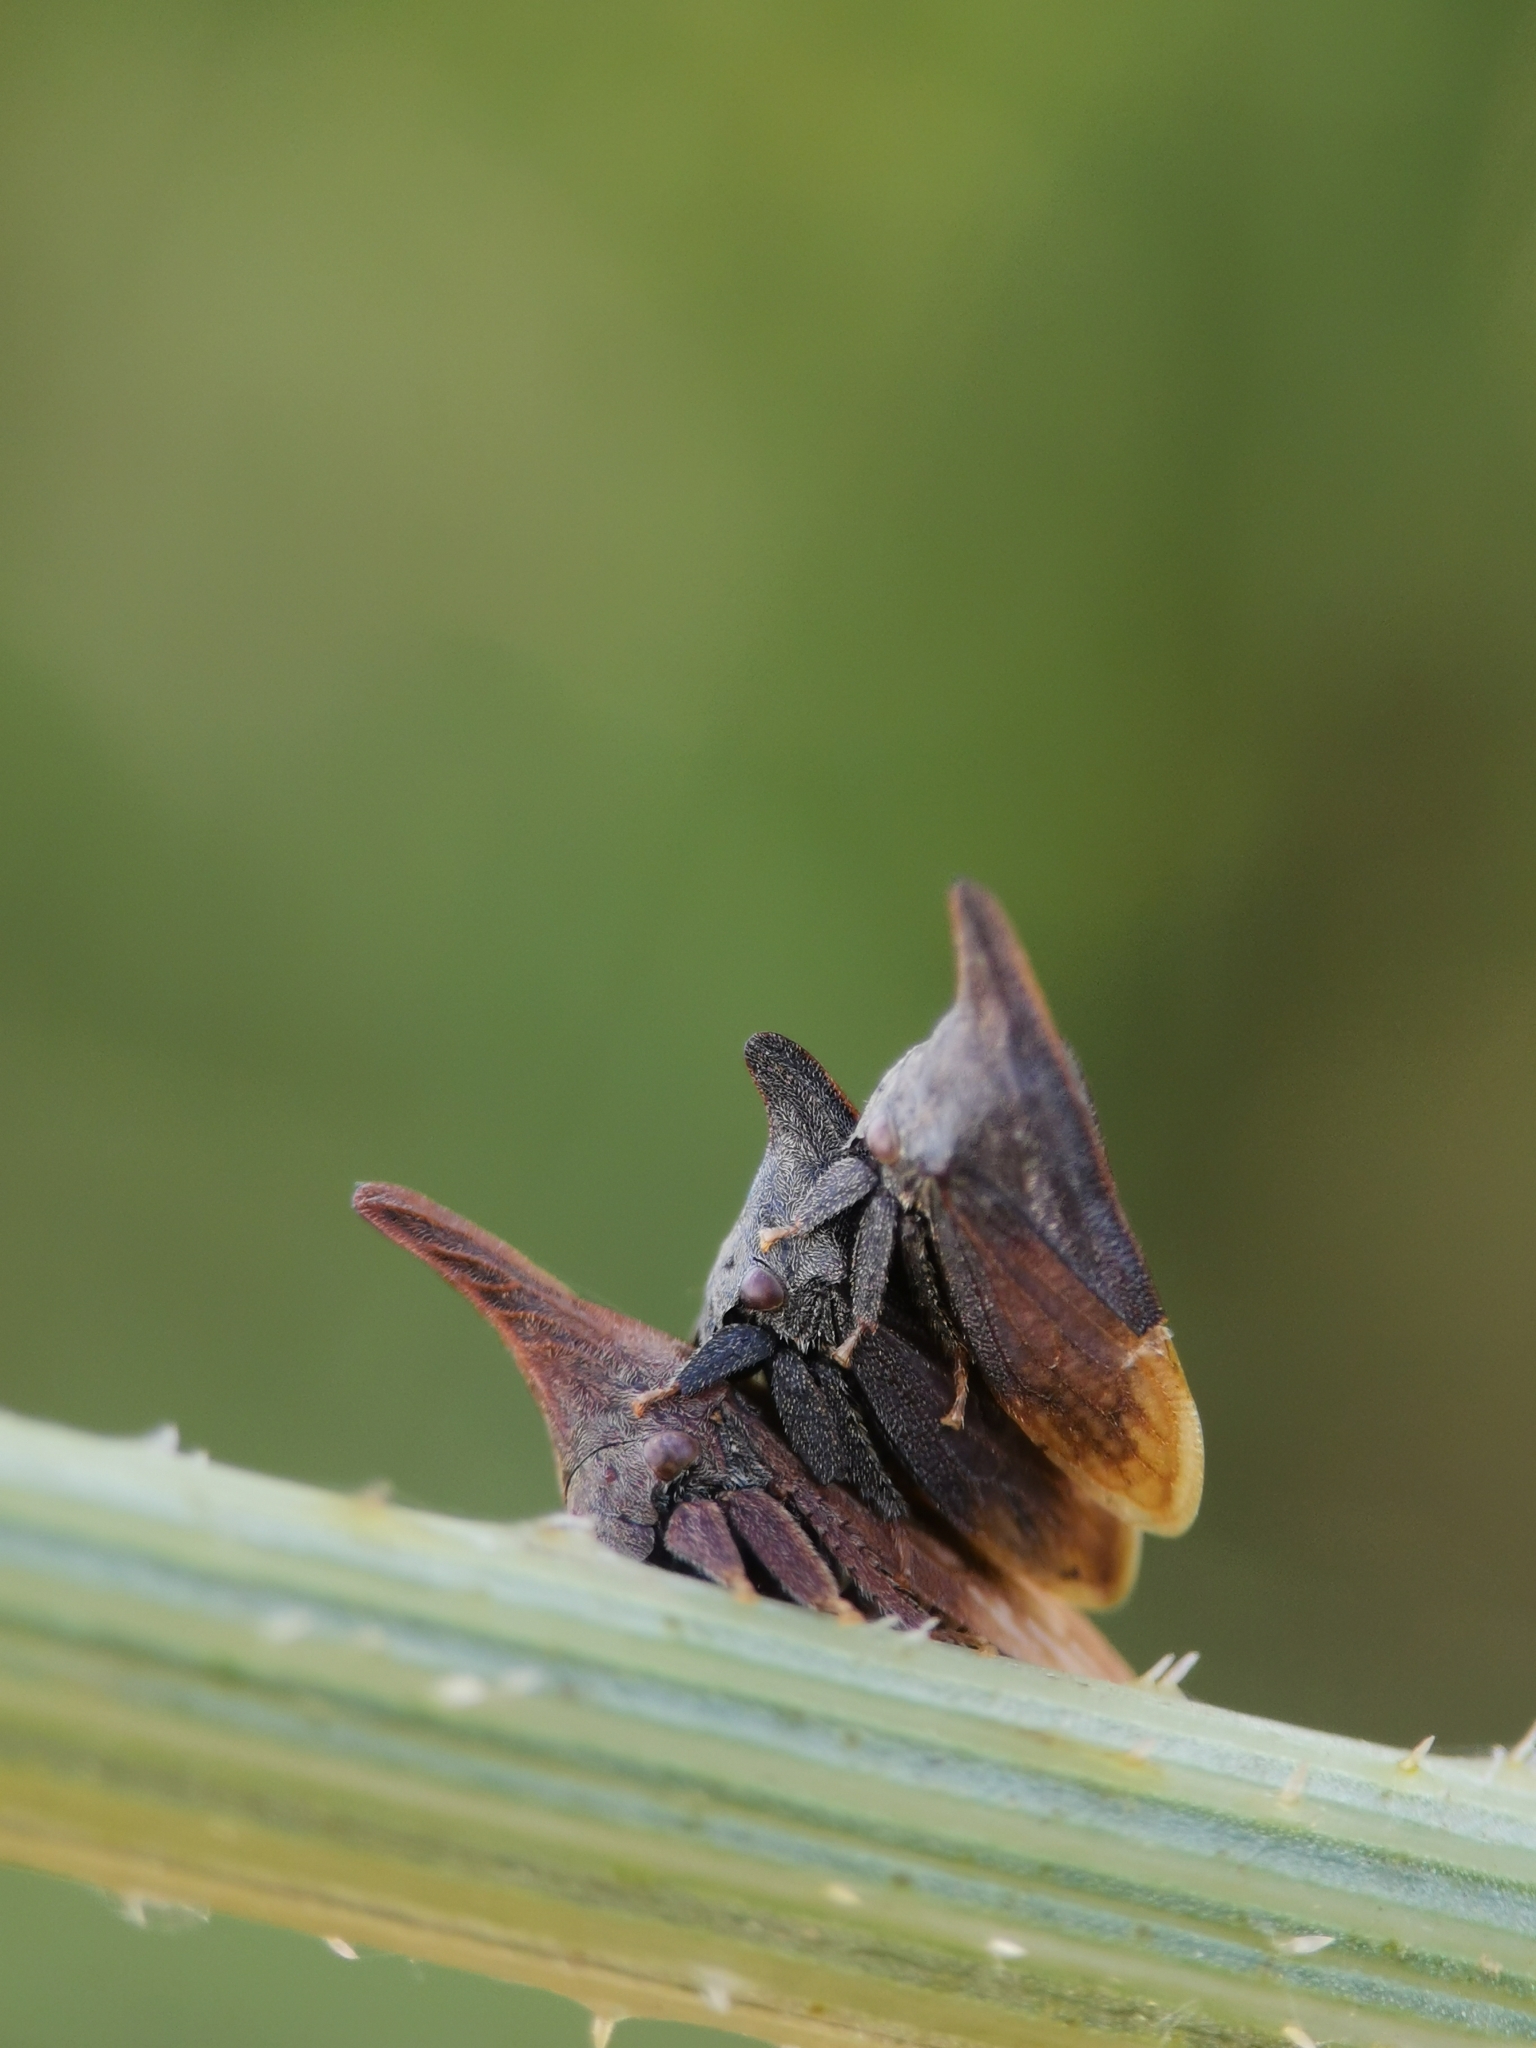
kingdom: Animalia
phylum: Arthropoda
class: Insecta
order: Hemiptera
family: Membracidae
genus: Enchenopa
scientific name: Enchenopa latipes
